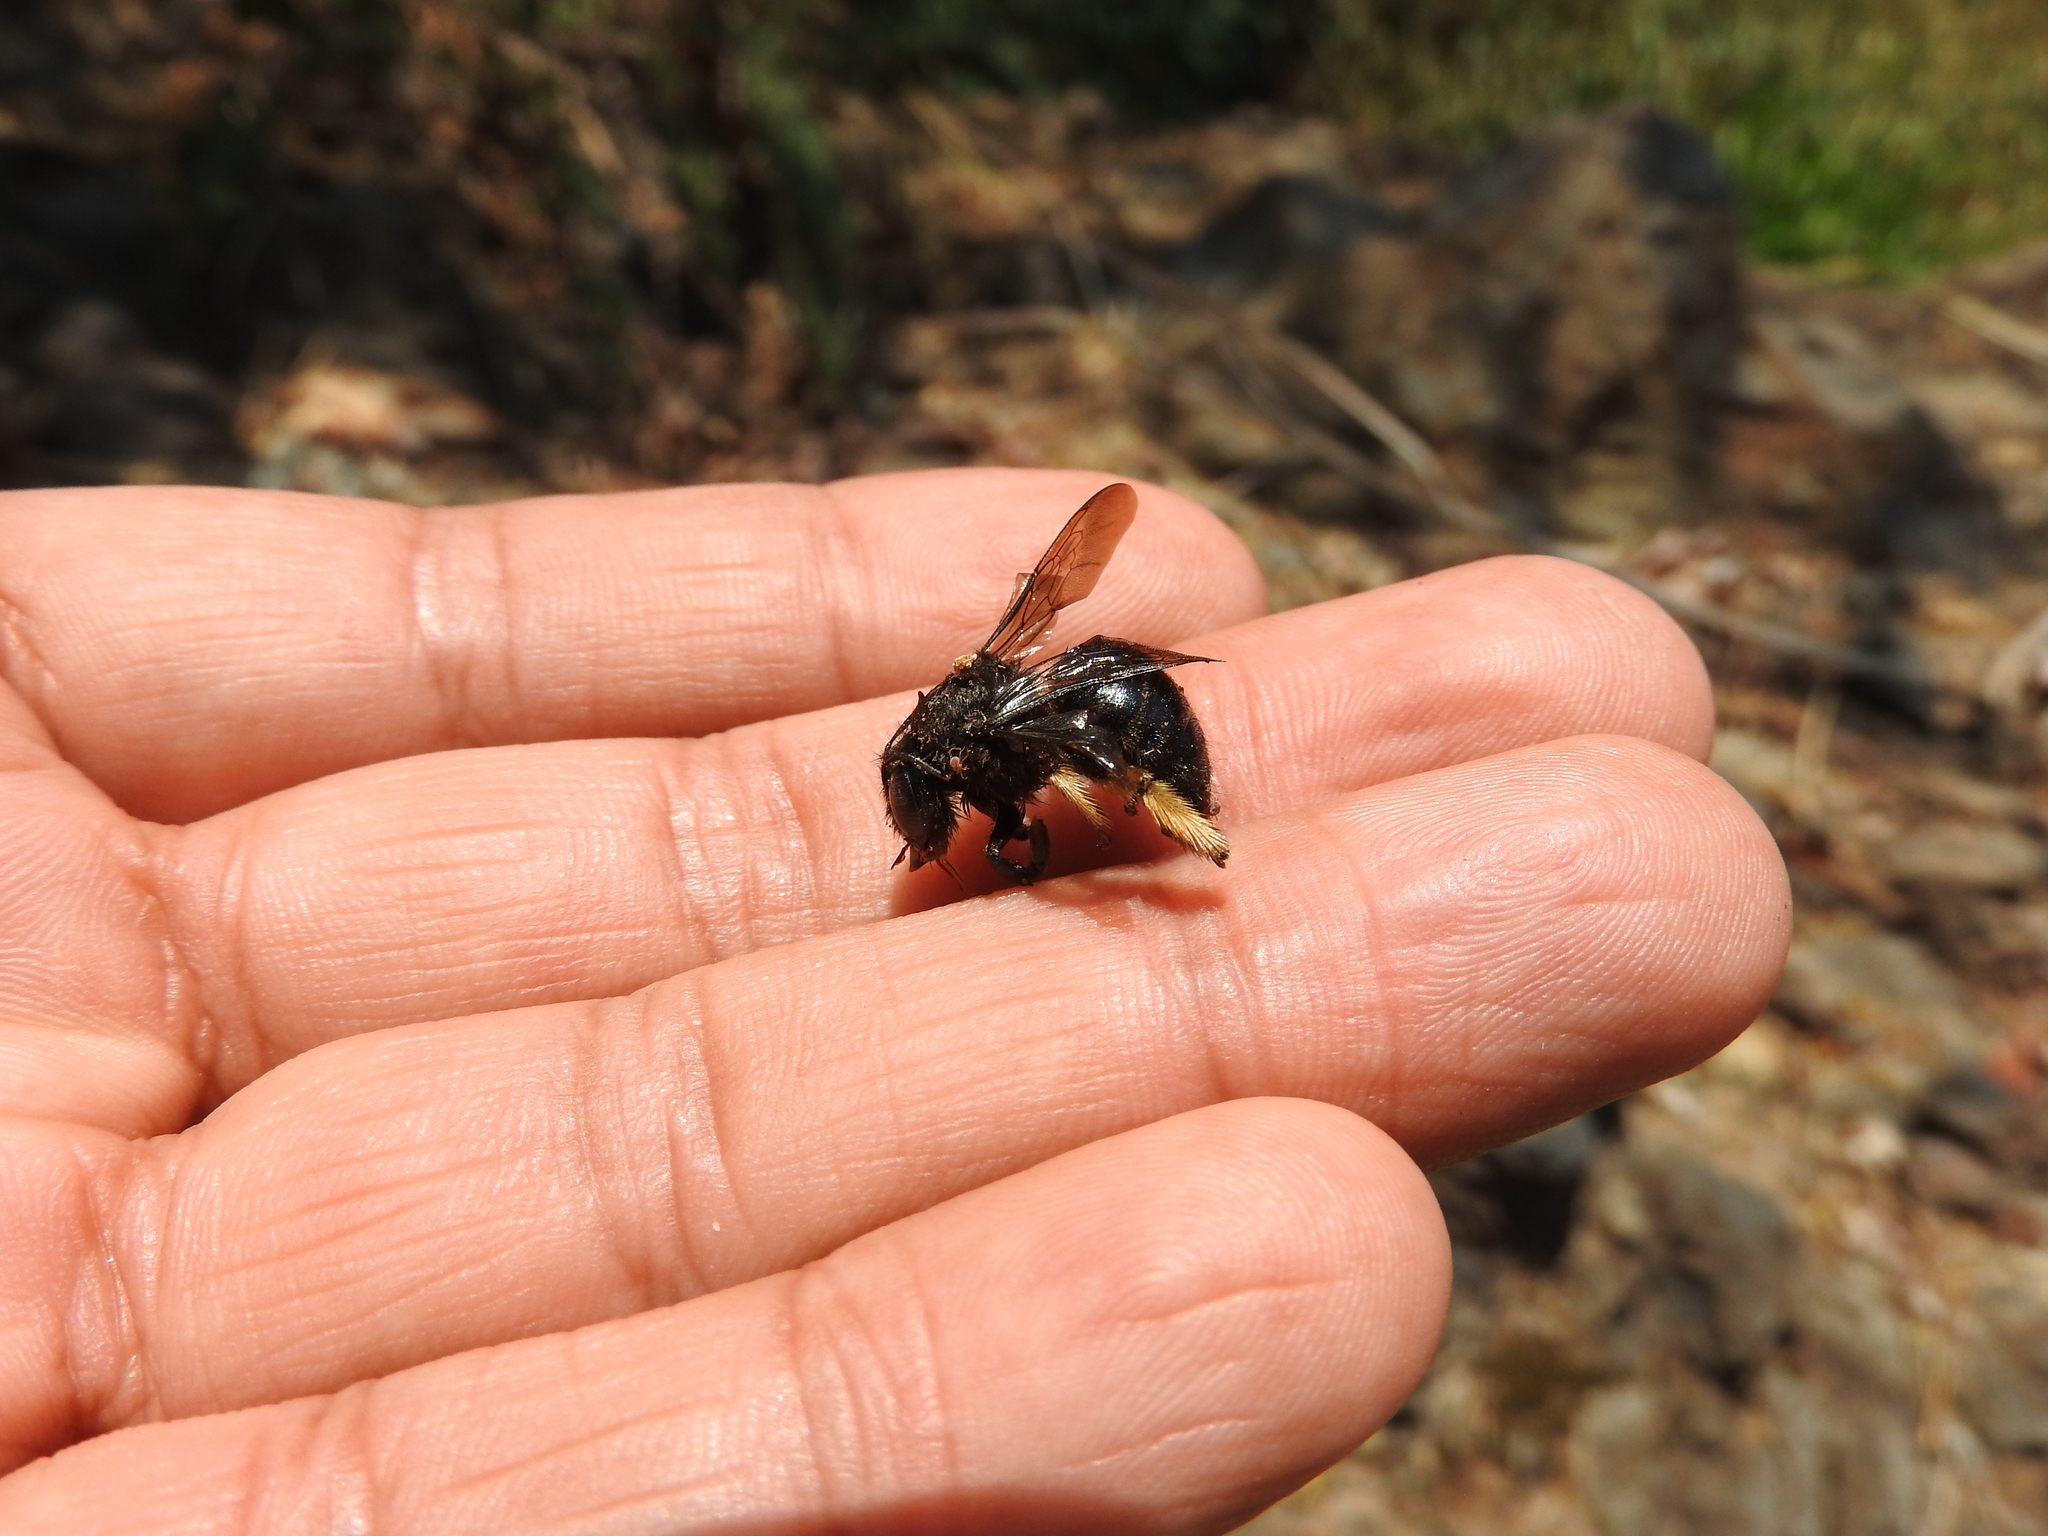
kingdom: Animalia
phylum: Arthropoda
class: Insecta
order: Hymenoptera
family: Apidae
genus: Xylocopa
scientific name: Xylocopa tabaniformis
